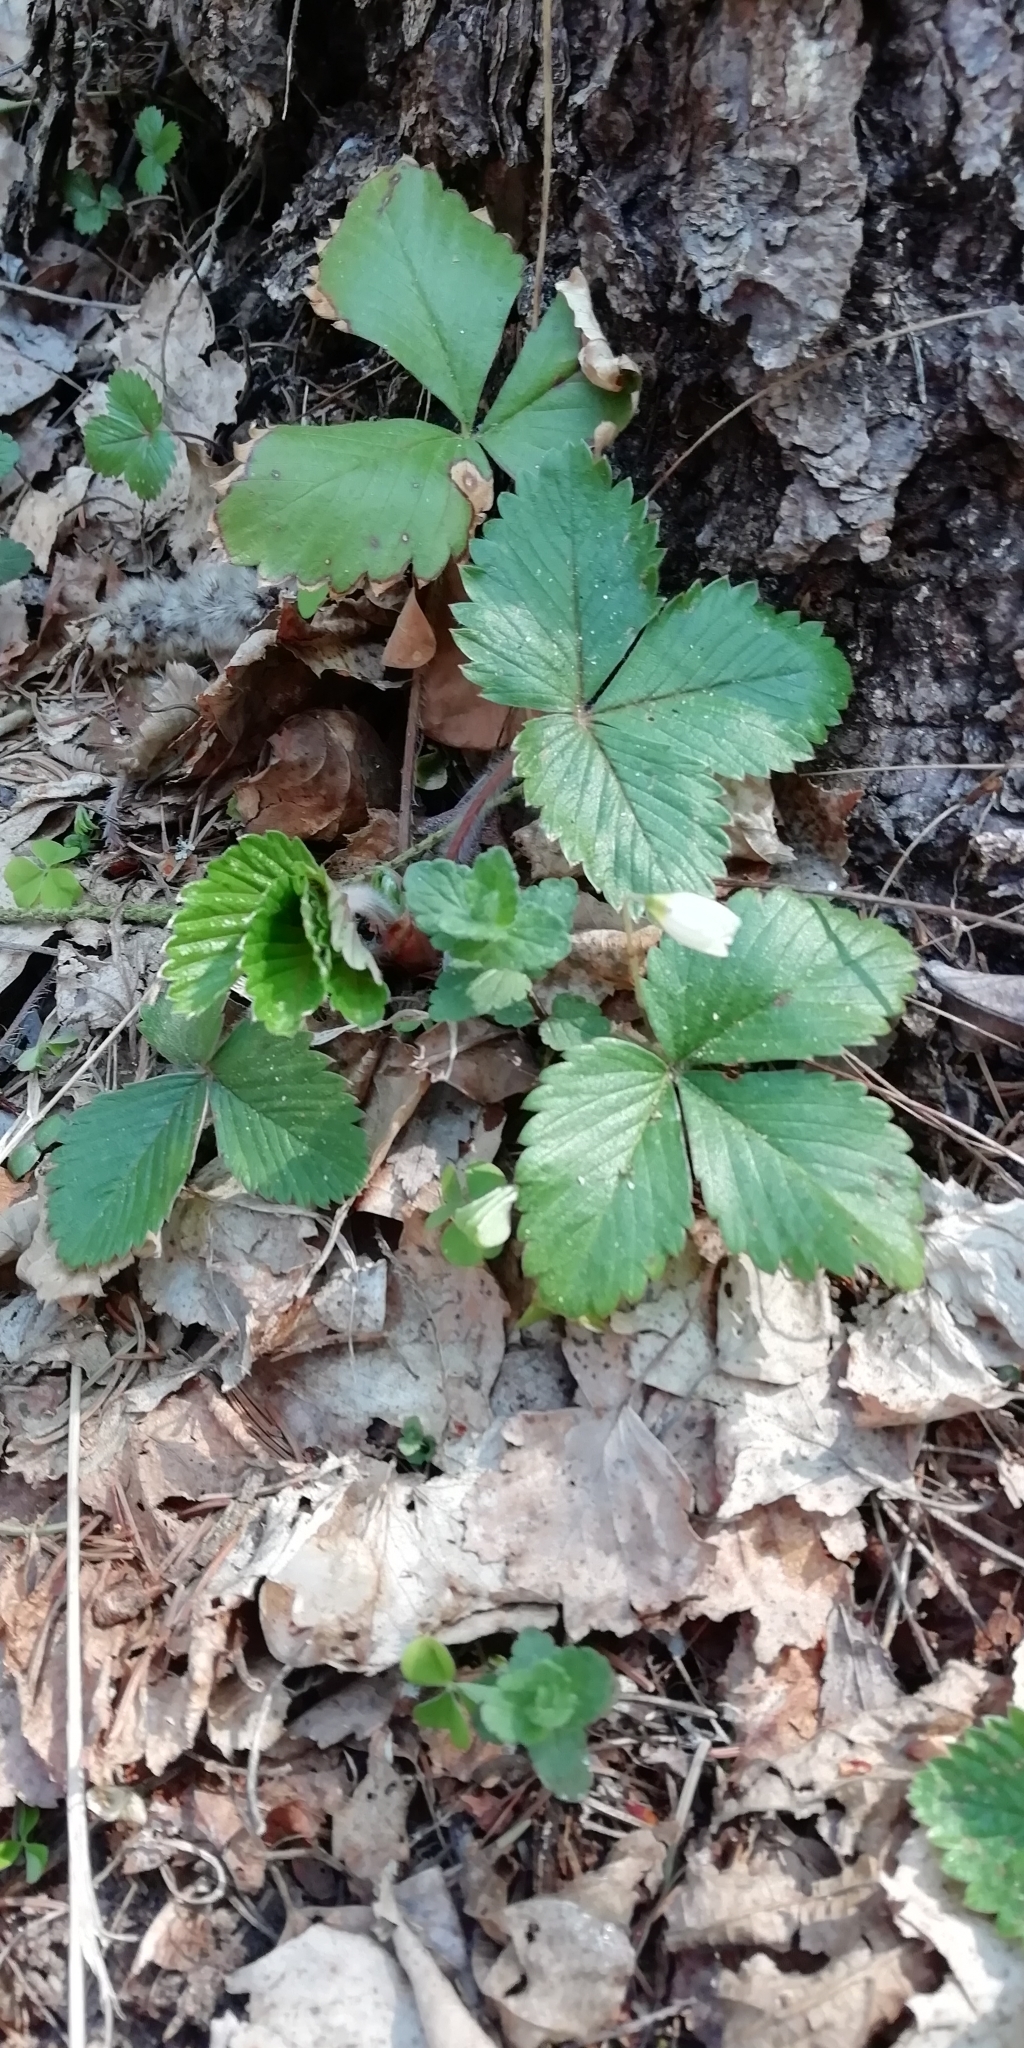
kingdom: Plantae
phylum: Tracheophyta
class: Magnoliopsida
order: Rosales
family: Rosaceae
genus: Fragaria
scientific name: Fragaria vesca
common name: Wild strawberry
